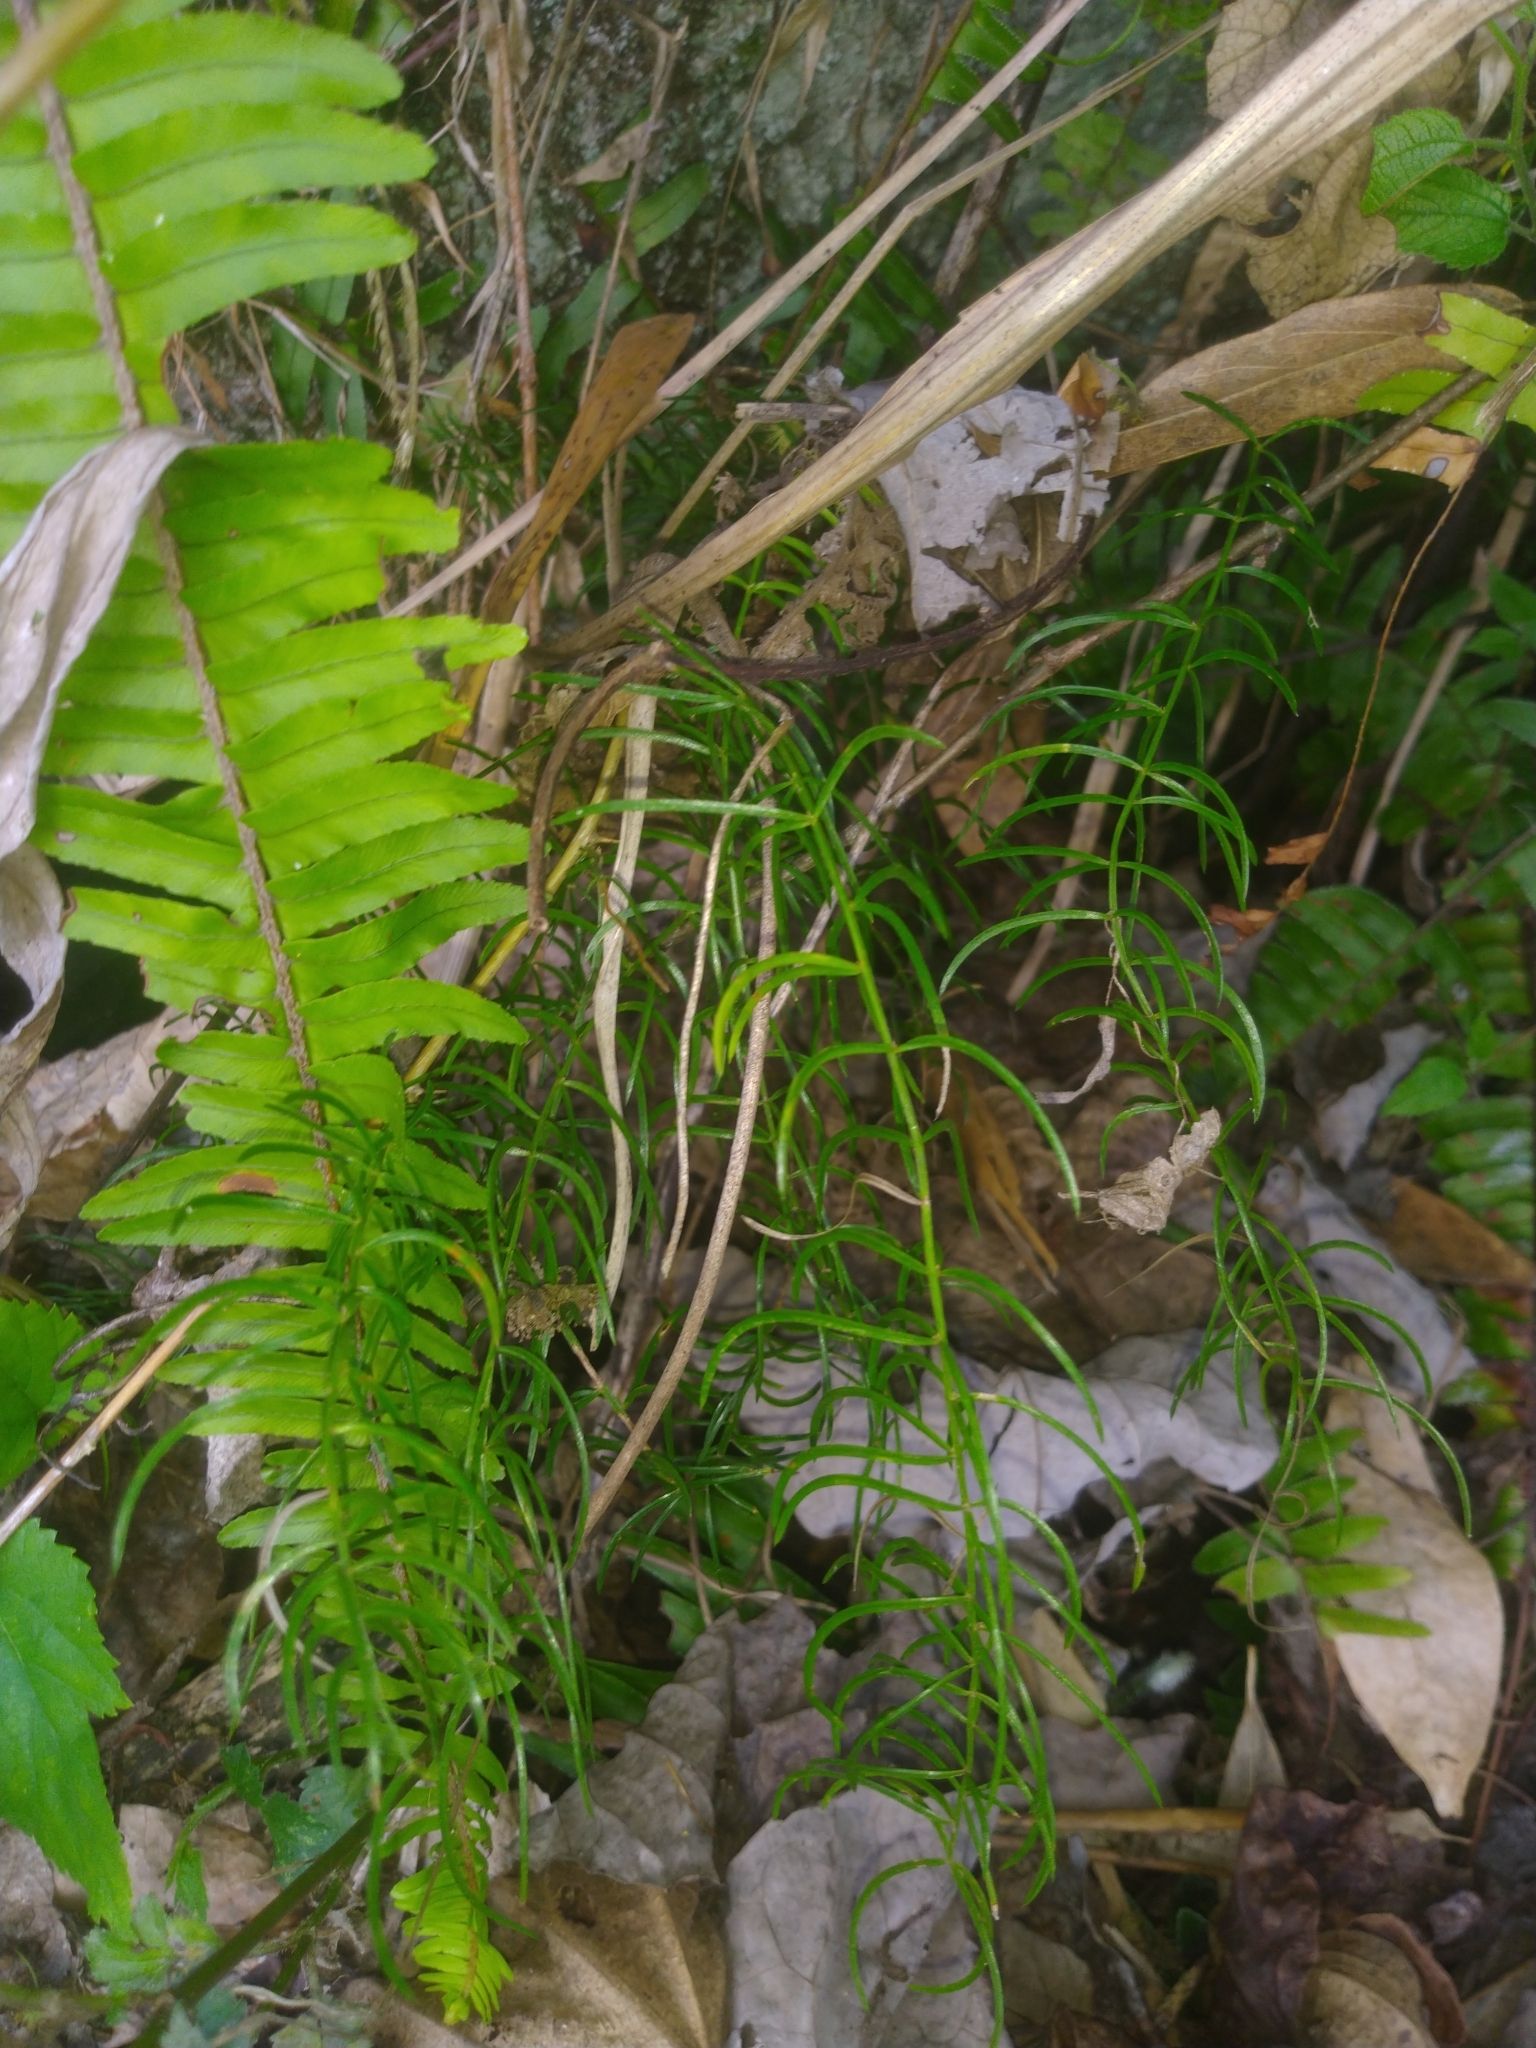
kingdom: Plantae
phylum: Tracheophyta
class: Liliopsida
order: Asparagales
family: Asparagaceae
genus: Asparagus
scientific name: Asparagus cochinchinensis
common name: Chinese asparagus
